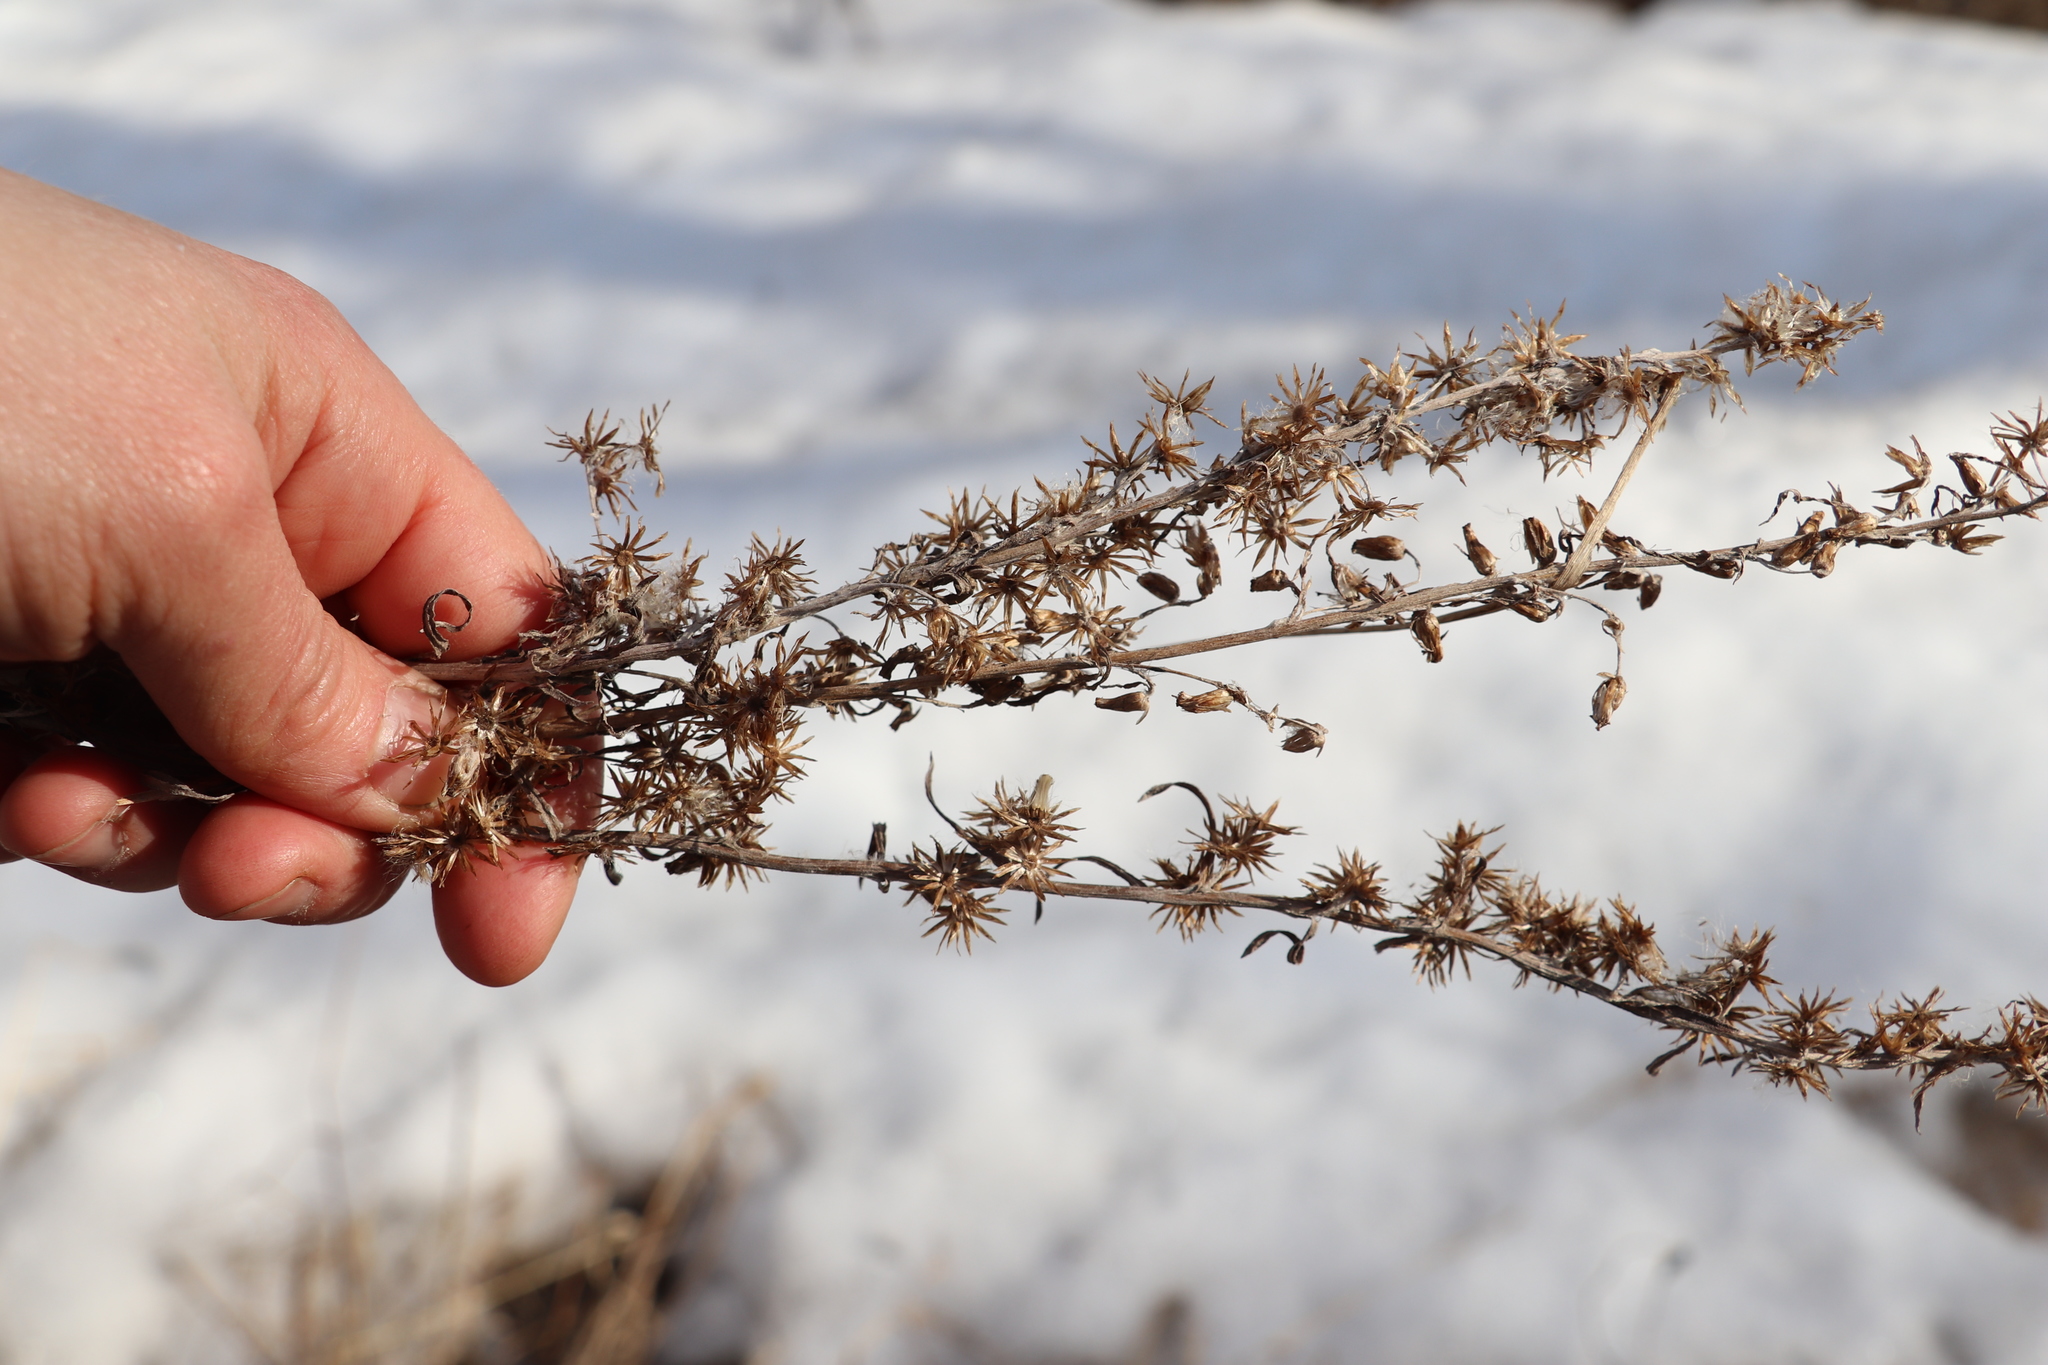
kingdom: Plantae
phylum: Tracheophyta
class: Magnoliopsida
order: Asterales
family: Asteraceae
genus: Omalotheca
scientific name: Omalotheca sylvatica
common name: Heath cudweed
